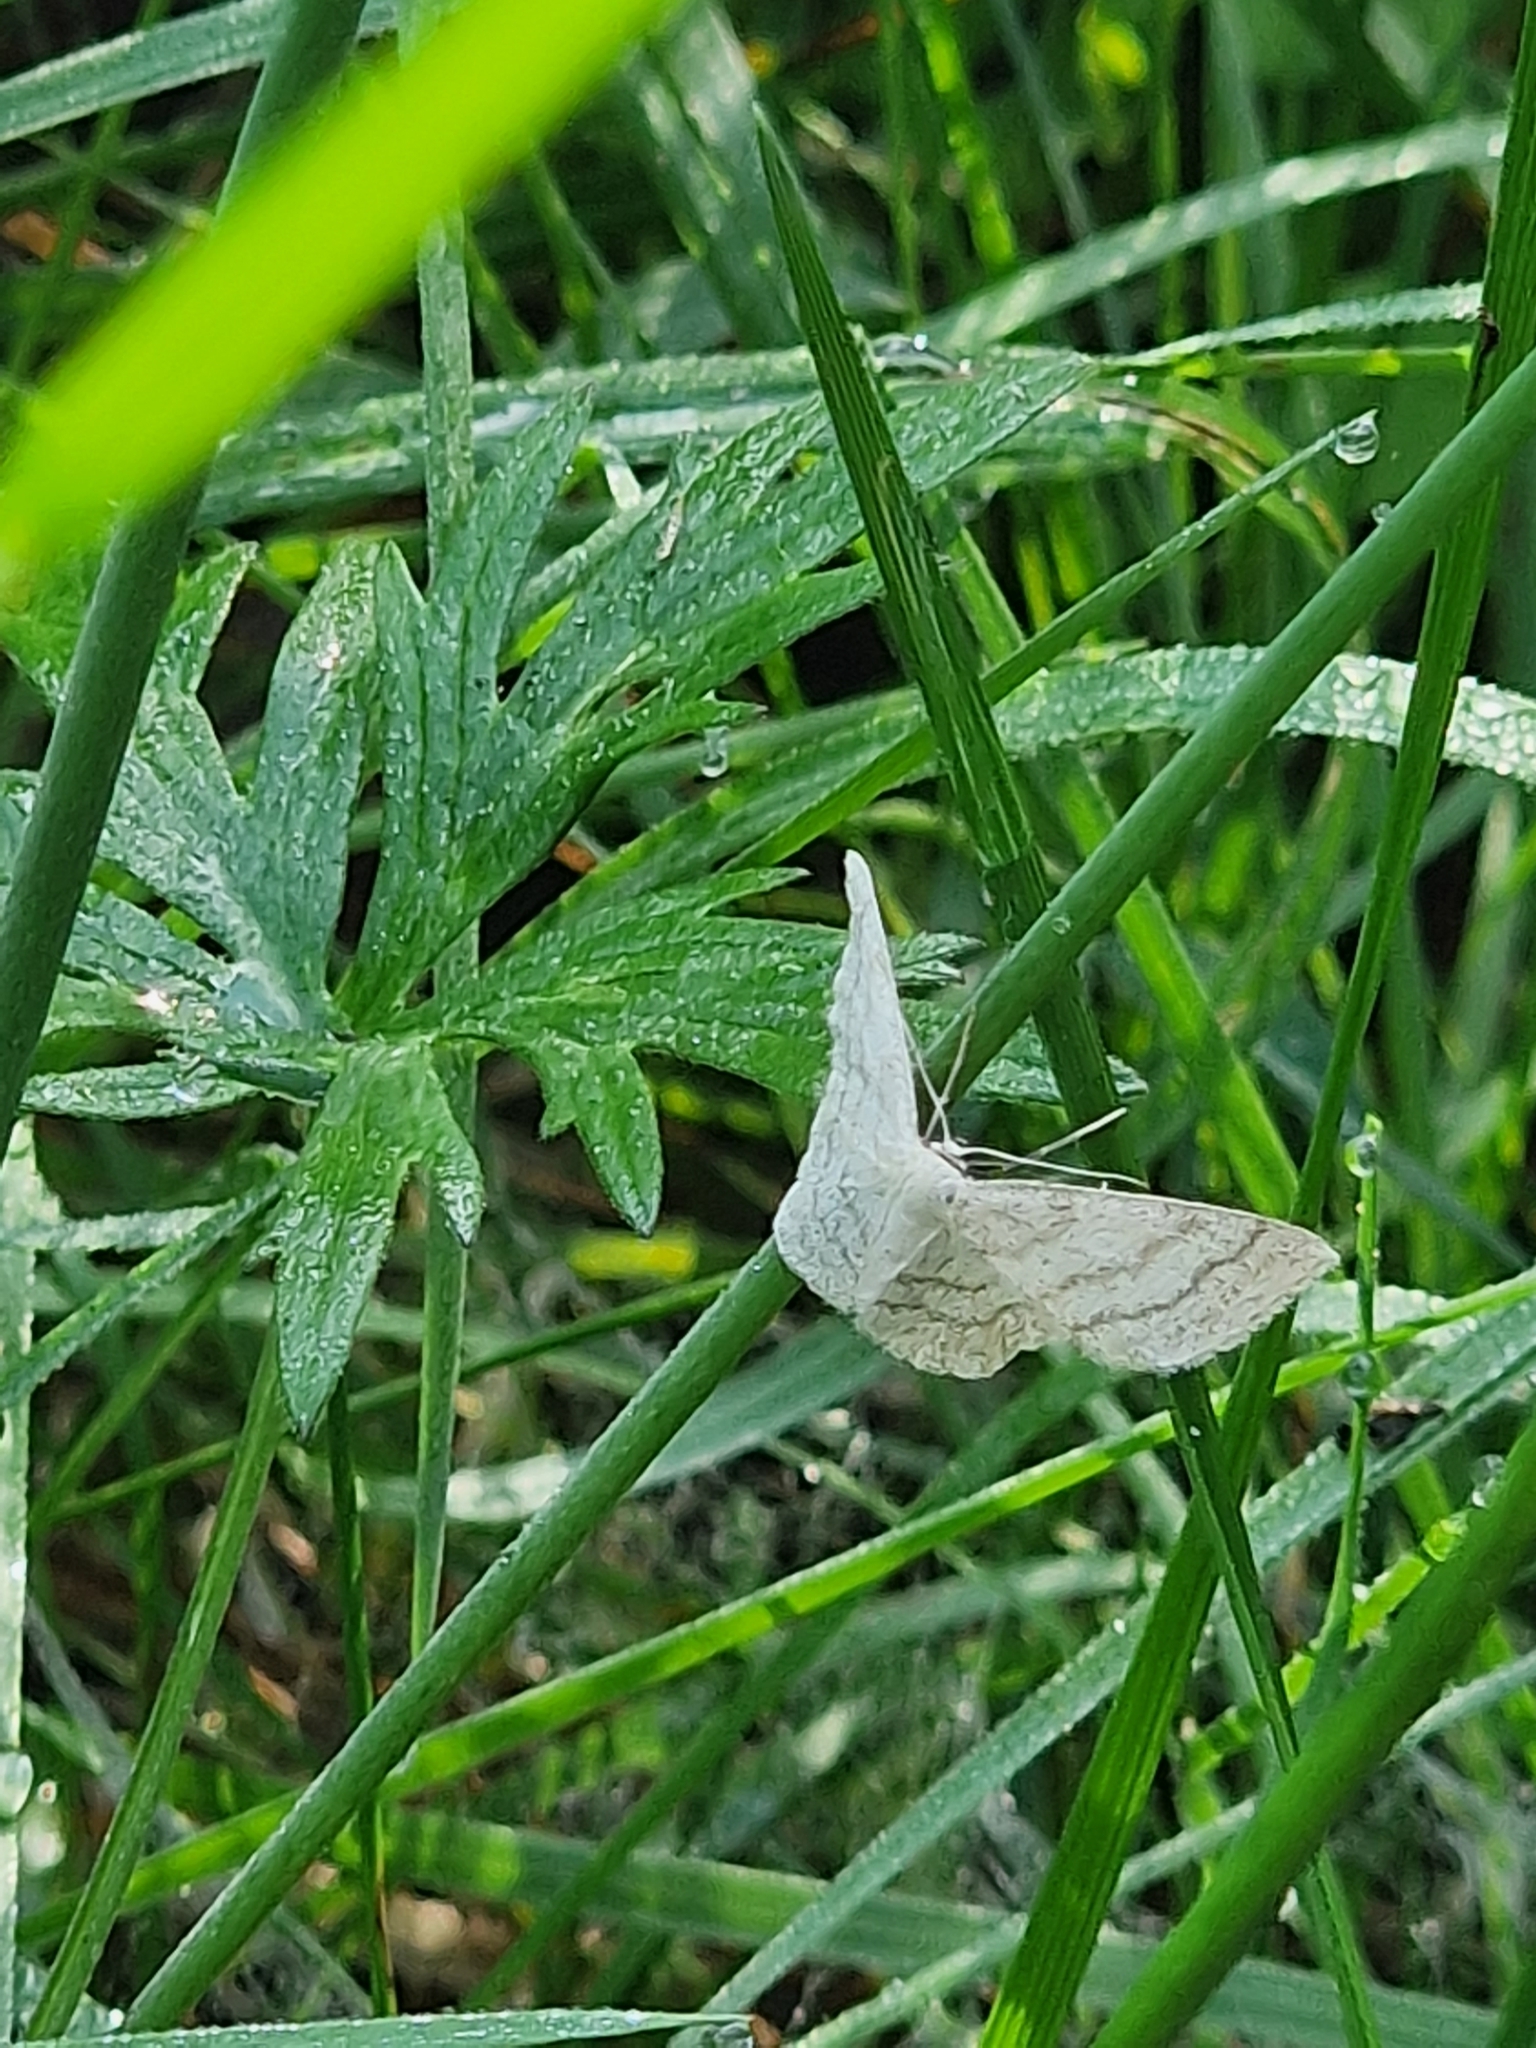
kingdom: Animalia
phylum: Arthropoda
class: Insecta
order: Lepidoptera
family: Geometridae
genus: Scopula
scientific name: Scopula ternata
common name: Smoky wave
